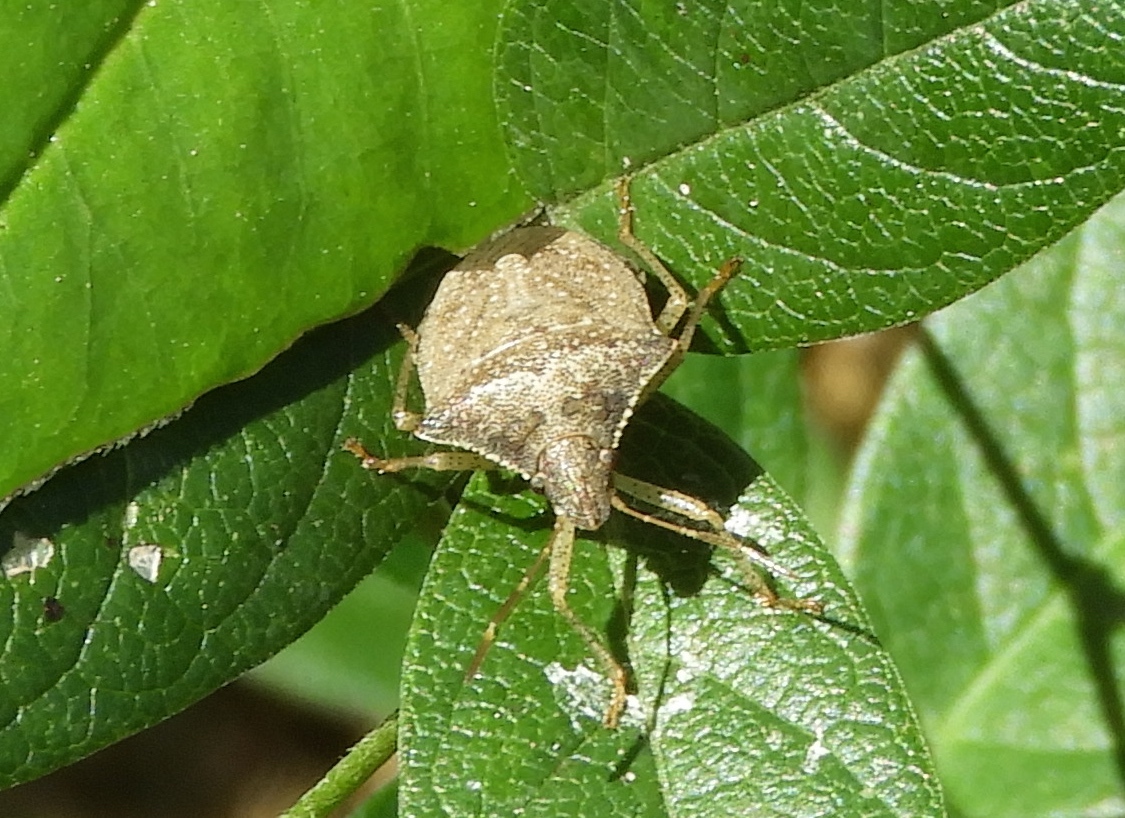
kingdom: Animalia
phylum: Arthropoda
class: Insecta
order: Hemiptera
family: Pentatomidae
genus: Euschistus
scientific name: Euschistus
